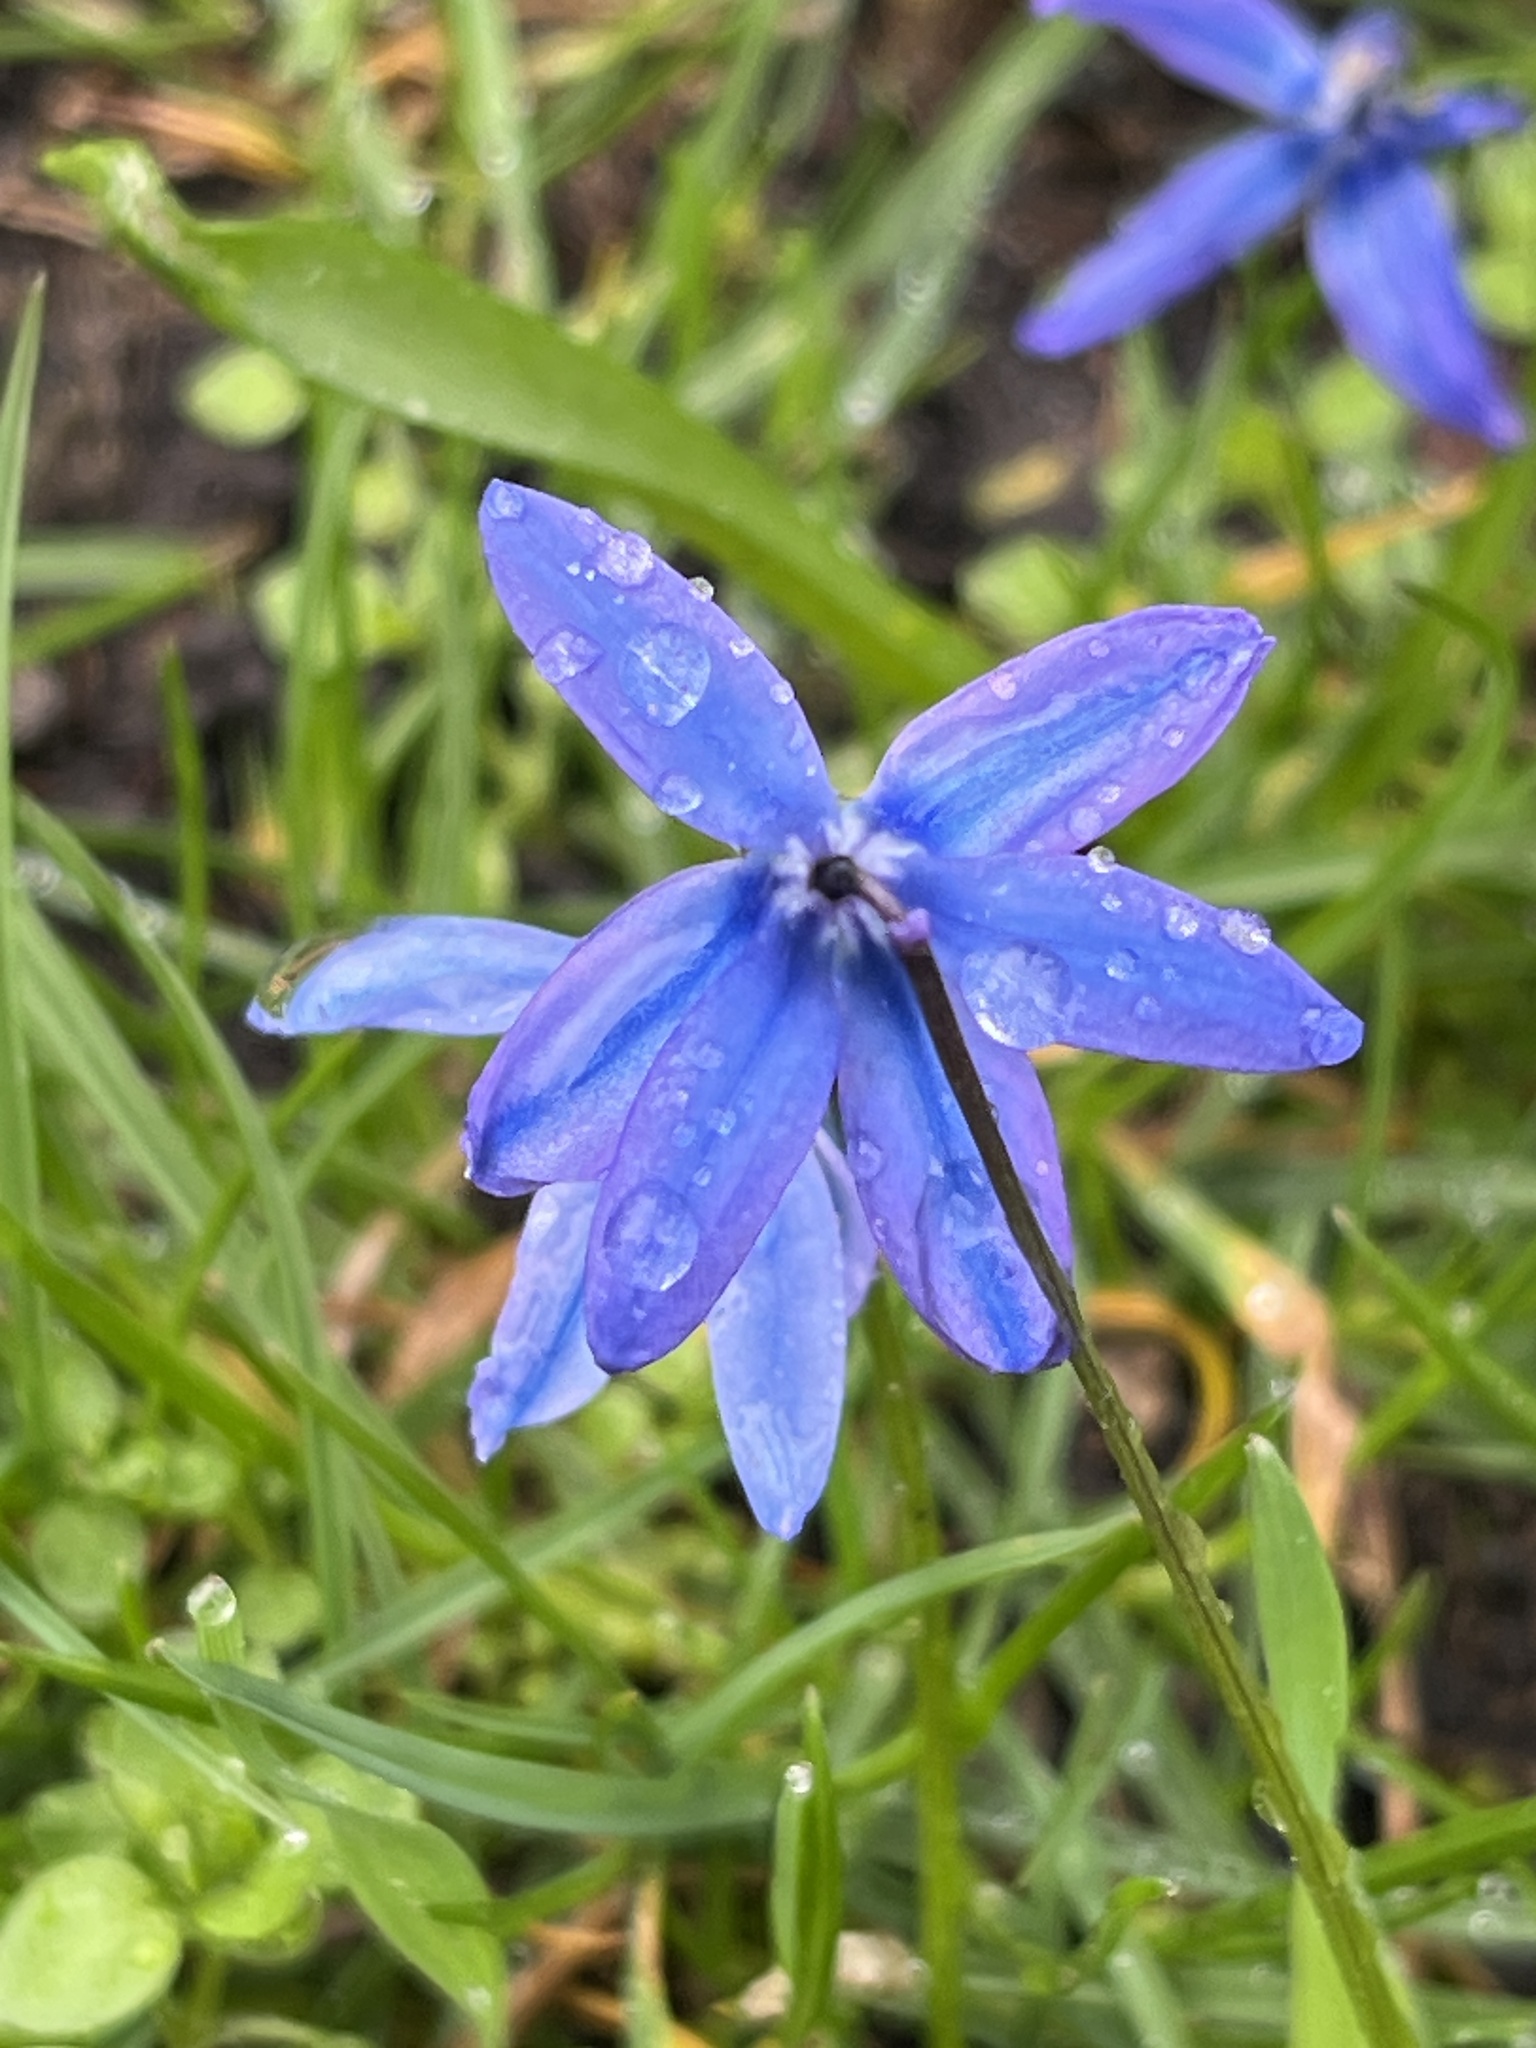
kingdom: Plantae
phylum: Tracheophyta
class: Liliopsida
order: Asparagales
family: Asparagaceae
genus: Scilla
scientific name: Scilla siberica
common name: Siberian squill
